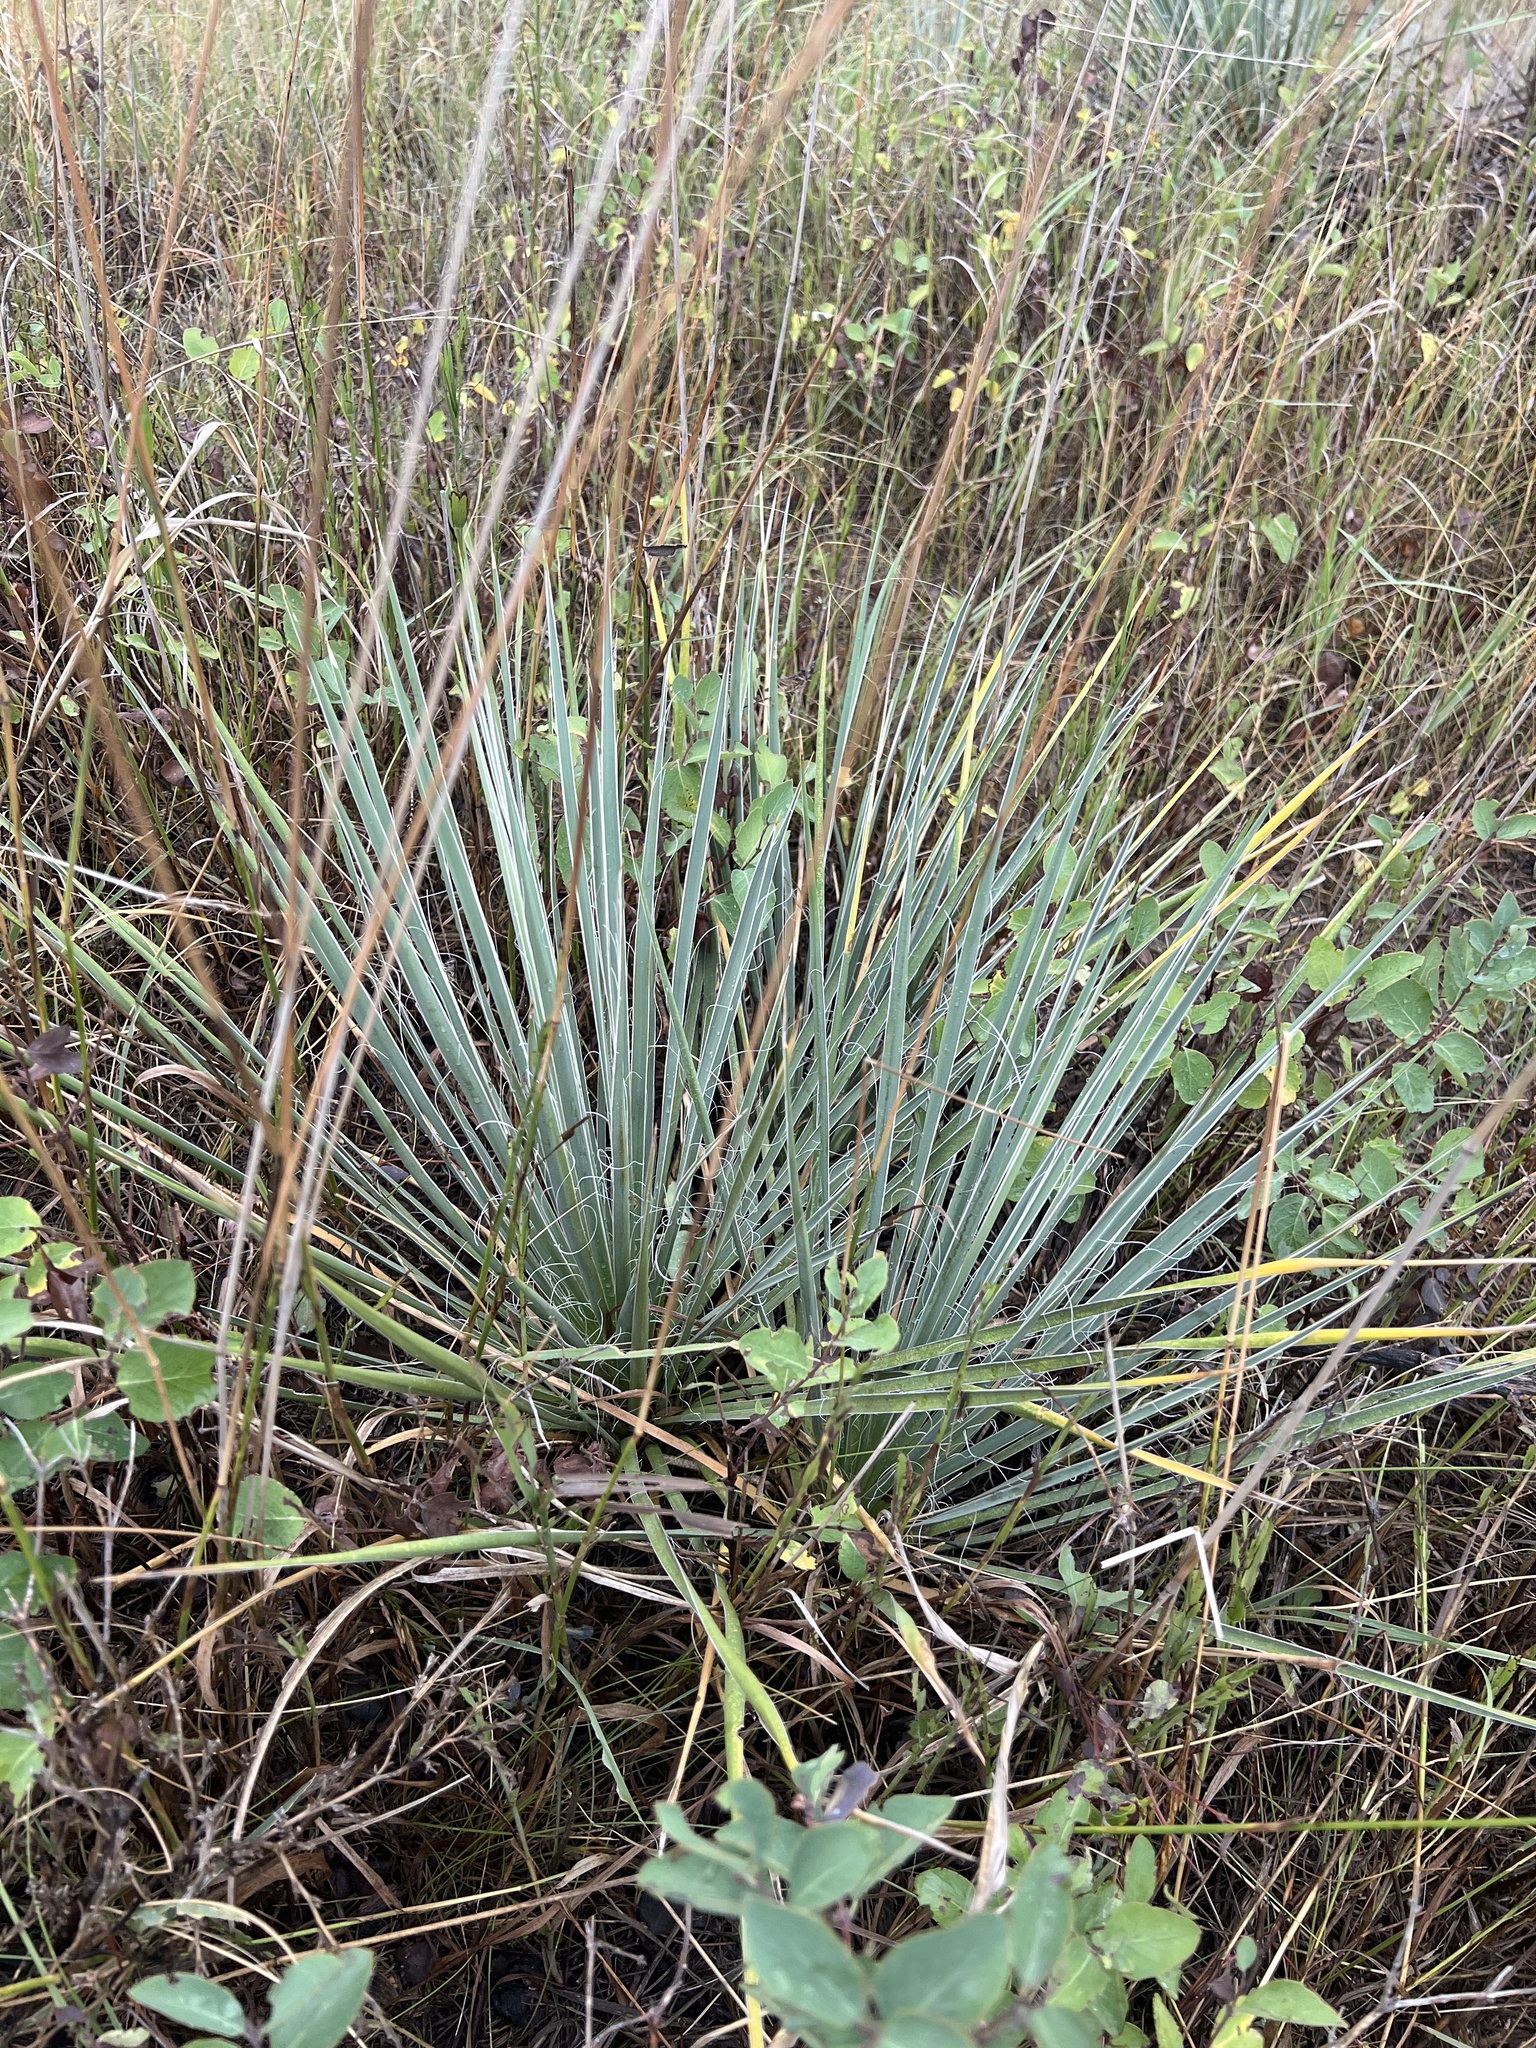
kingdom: Plantae
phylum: Tracheophyta
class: Liliopsida
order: Asparagales
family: Asparagaceae
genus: Yucca
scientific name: Yucca glauca
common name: Great plains yucca
